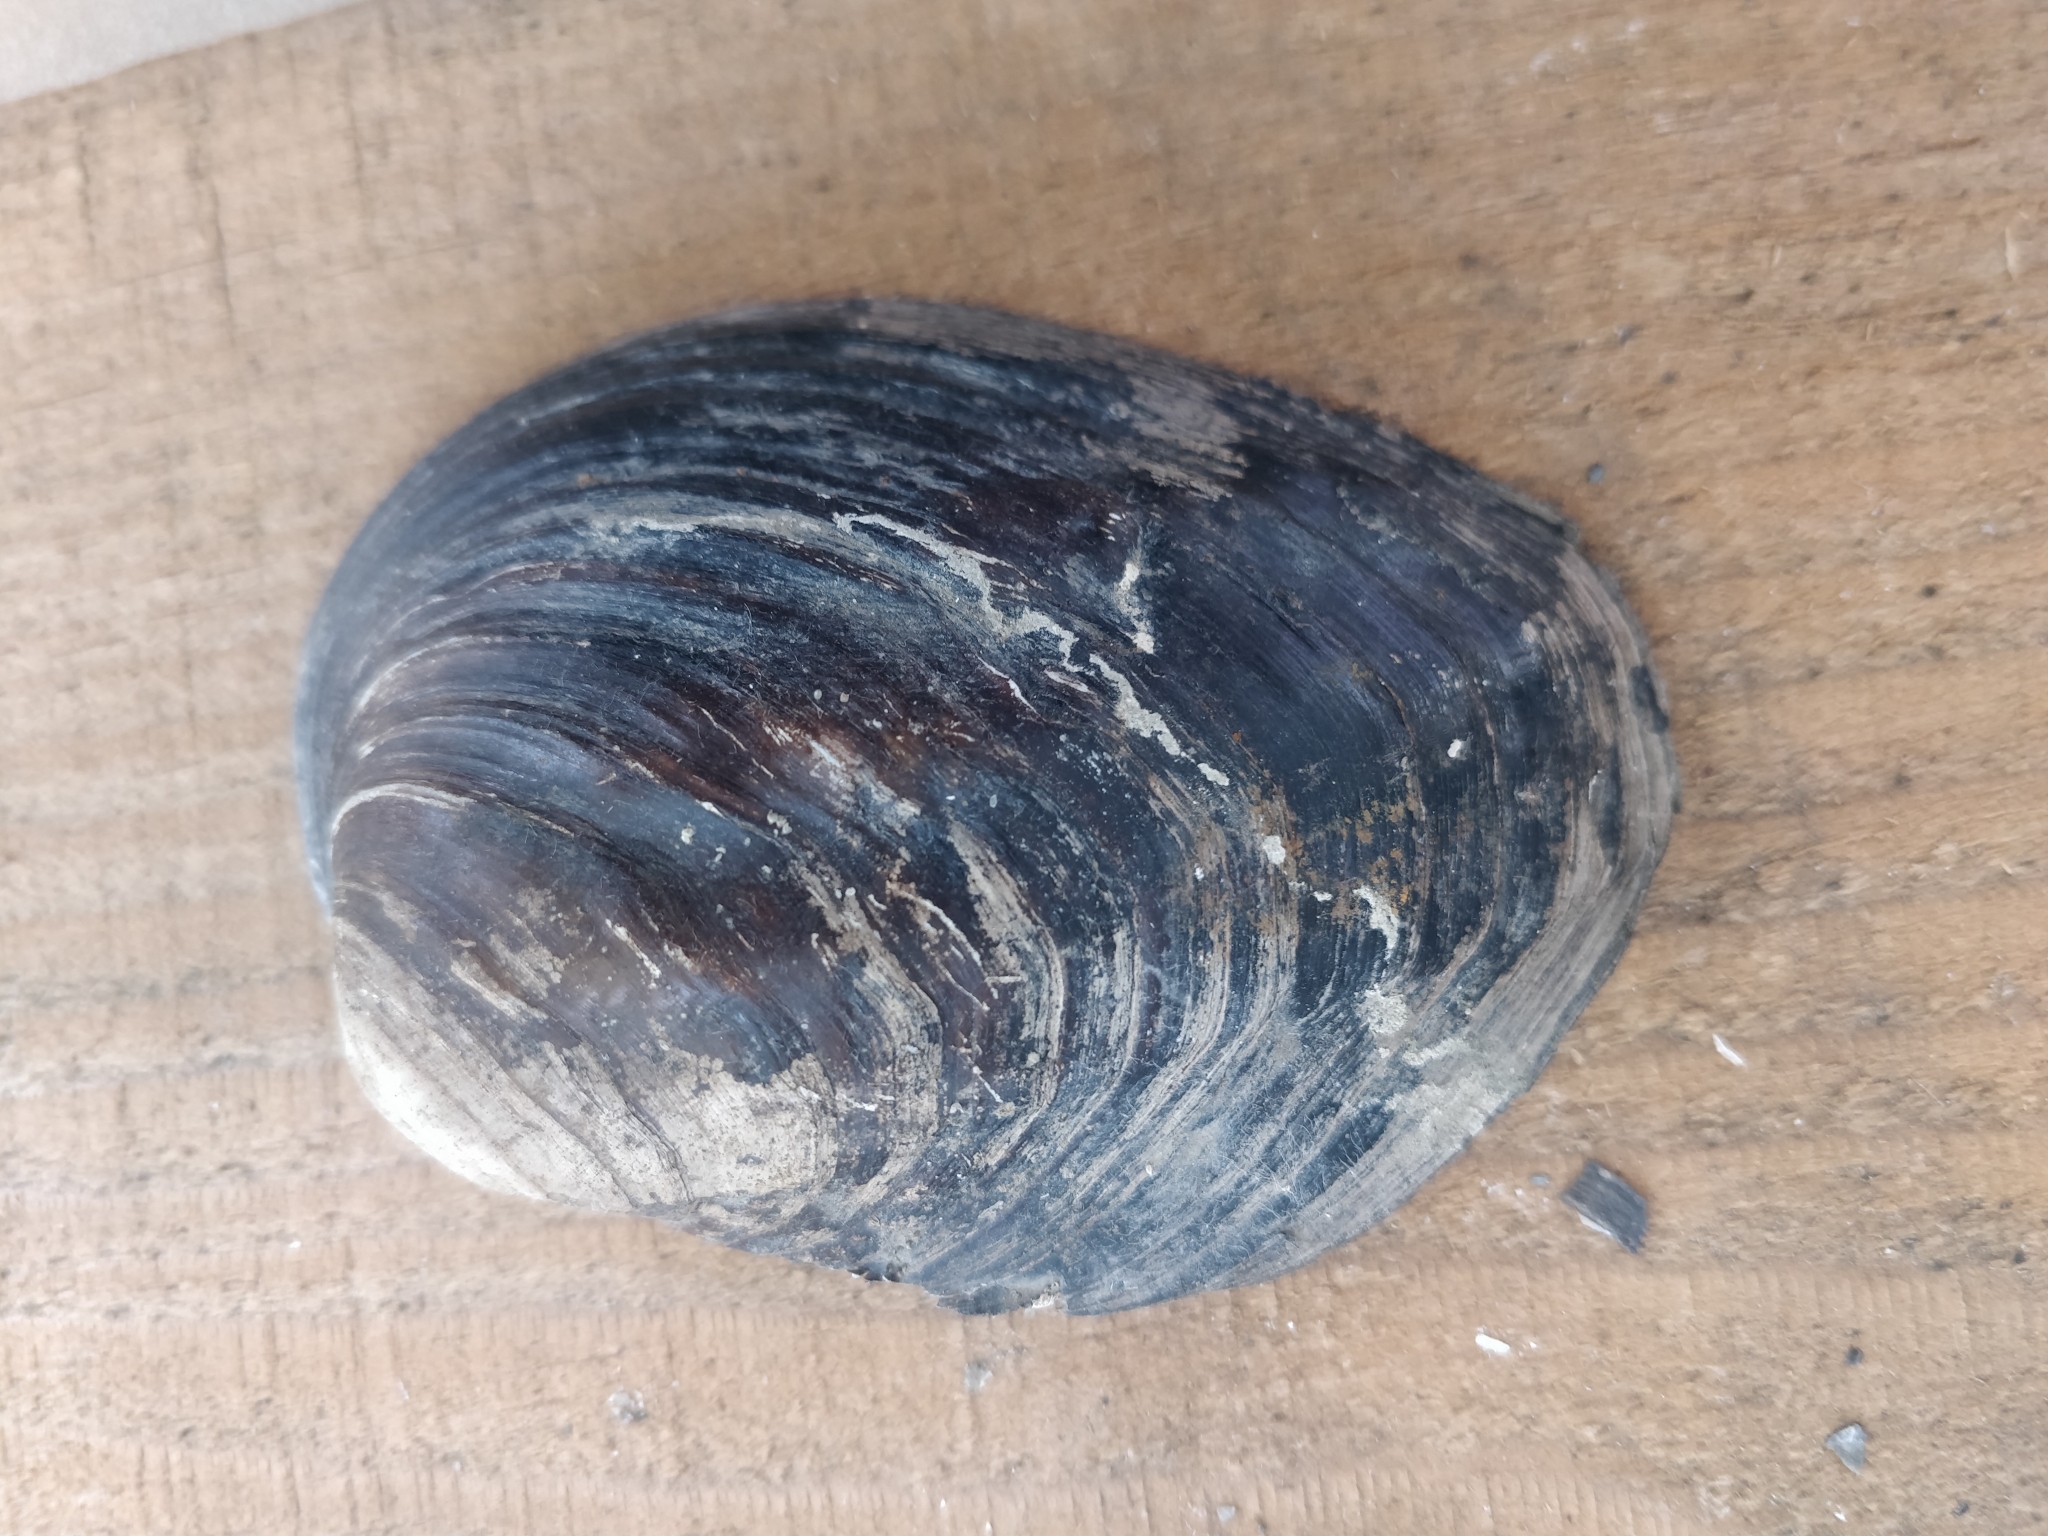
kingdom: Animalia
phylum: Mollusca
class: Bivalvia
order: Unionida
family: Unionidae
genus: Amblema
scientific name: Amblema plicata
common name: Threeridge
